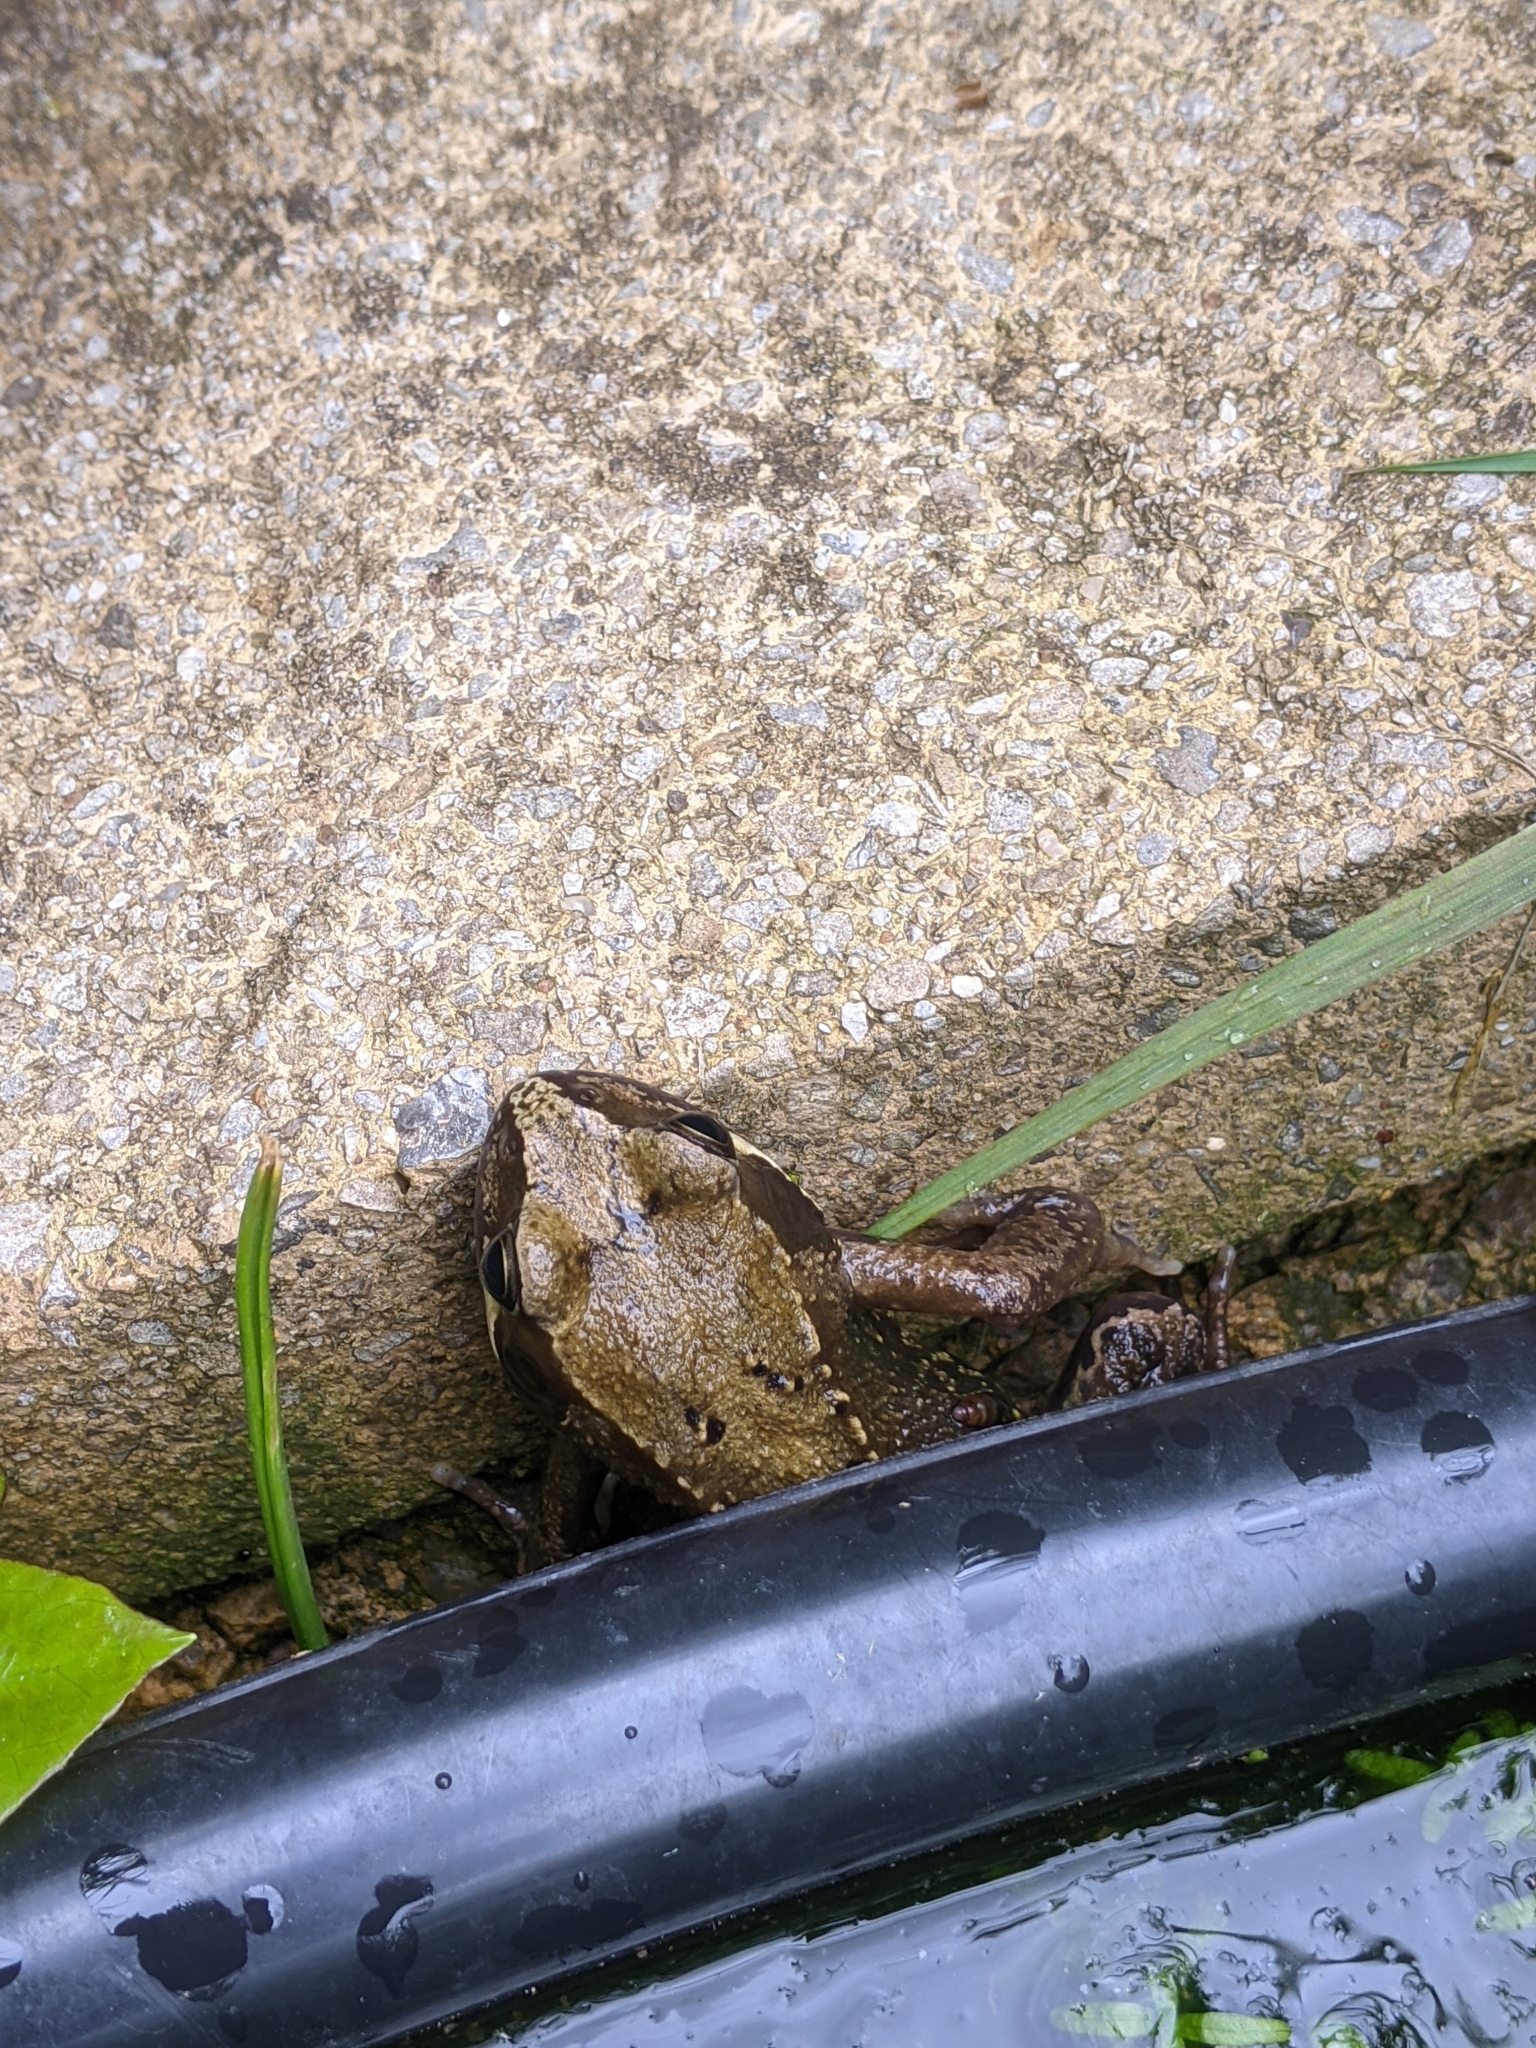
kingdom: Animalia
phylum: Chordata
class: Amphibia
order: Anura
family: Ranidae
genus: Rana
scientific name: Rana temporaria
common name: Common frog
